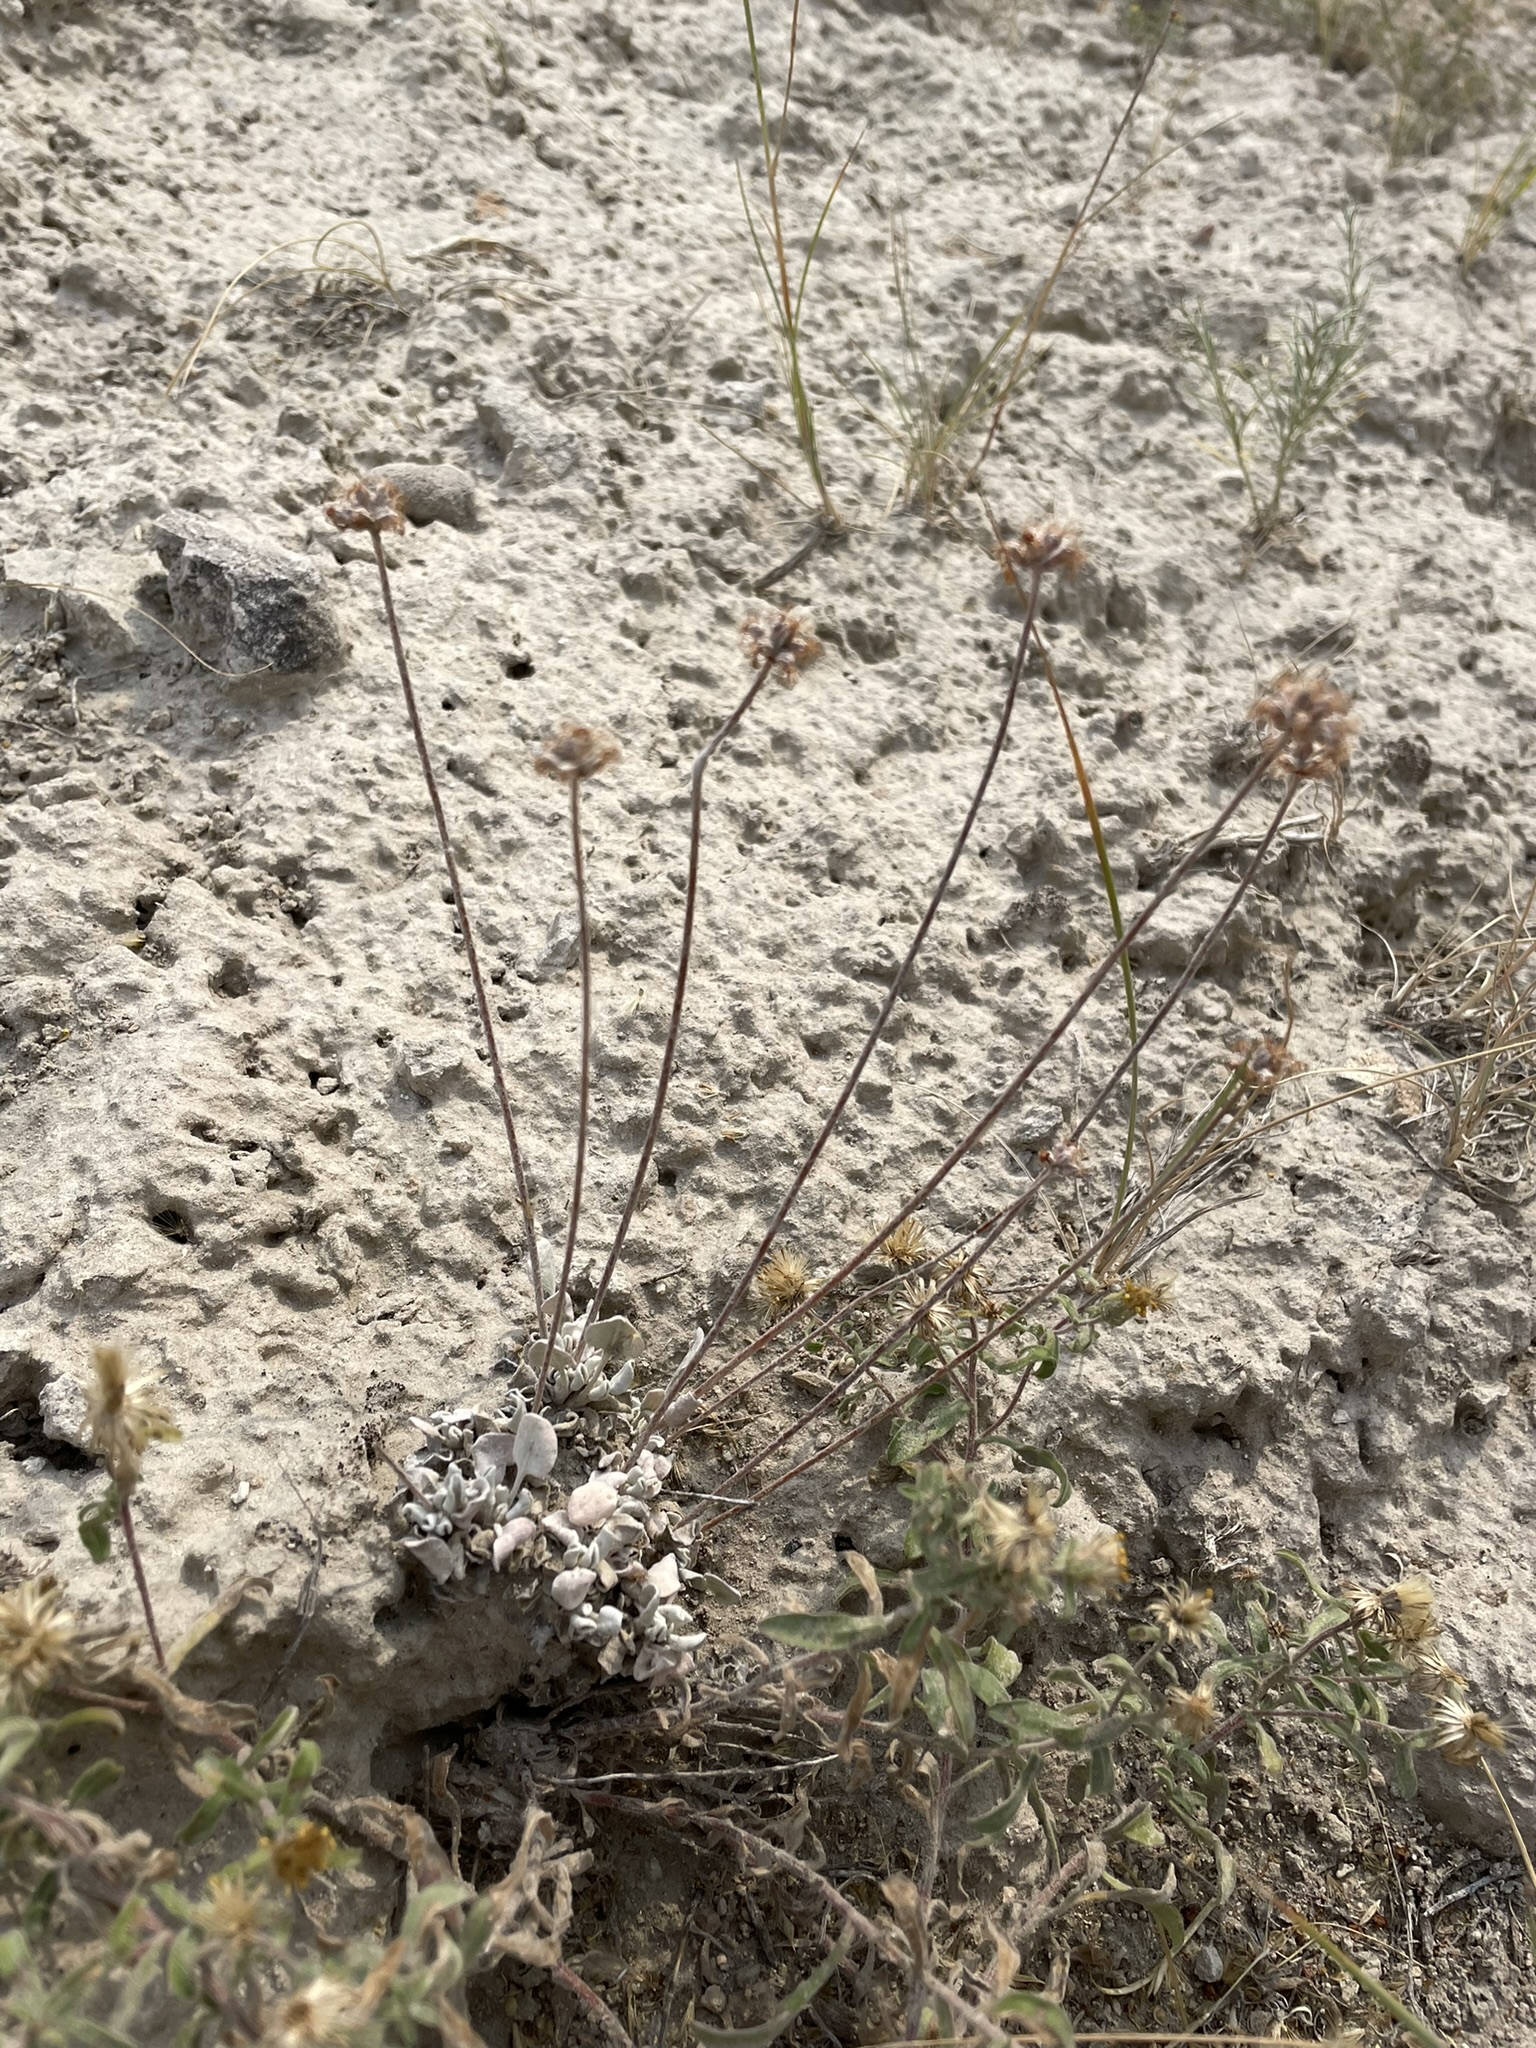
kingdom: Plantae
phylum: Tracheophyta
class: Magnoliopsida
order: Caryophyllales
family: Polygonaceae
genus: Eriogonum
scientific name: Eriogonum ovalifolium
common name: Cushion buckwheat
